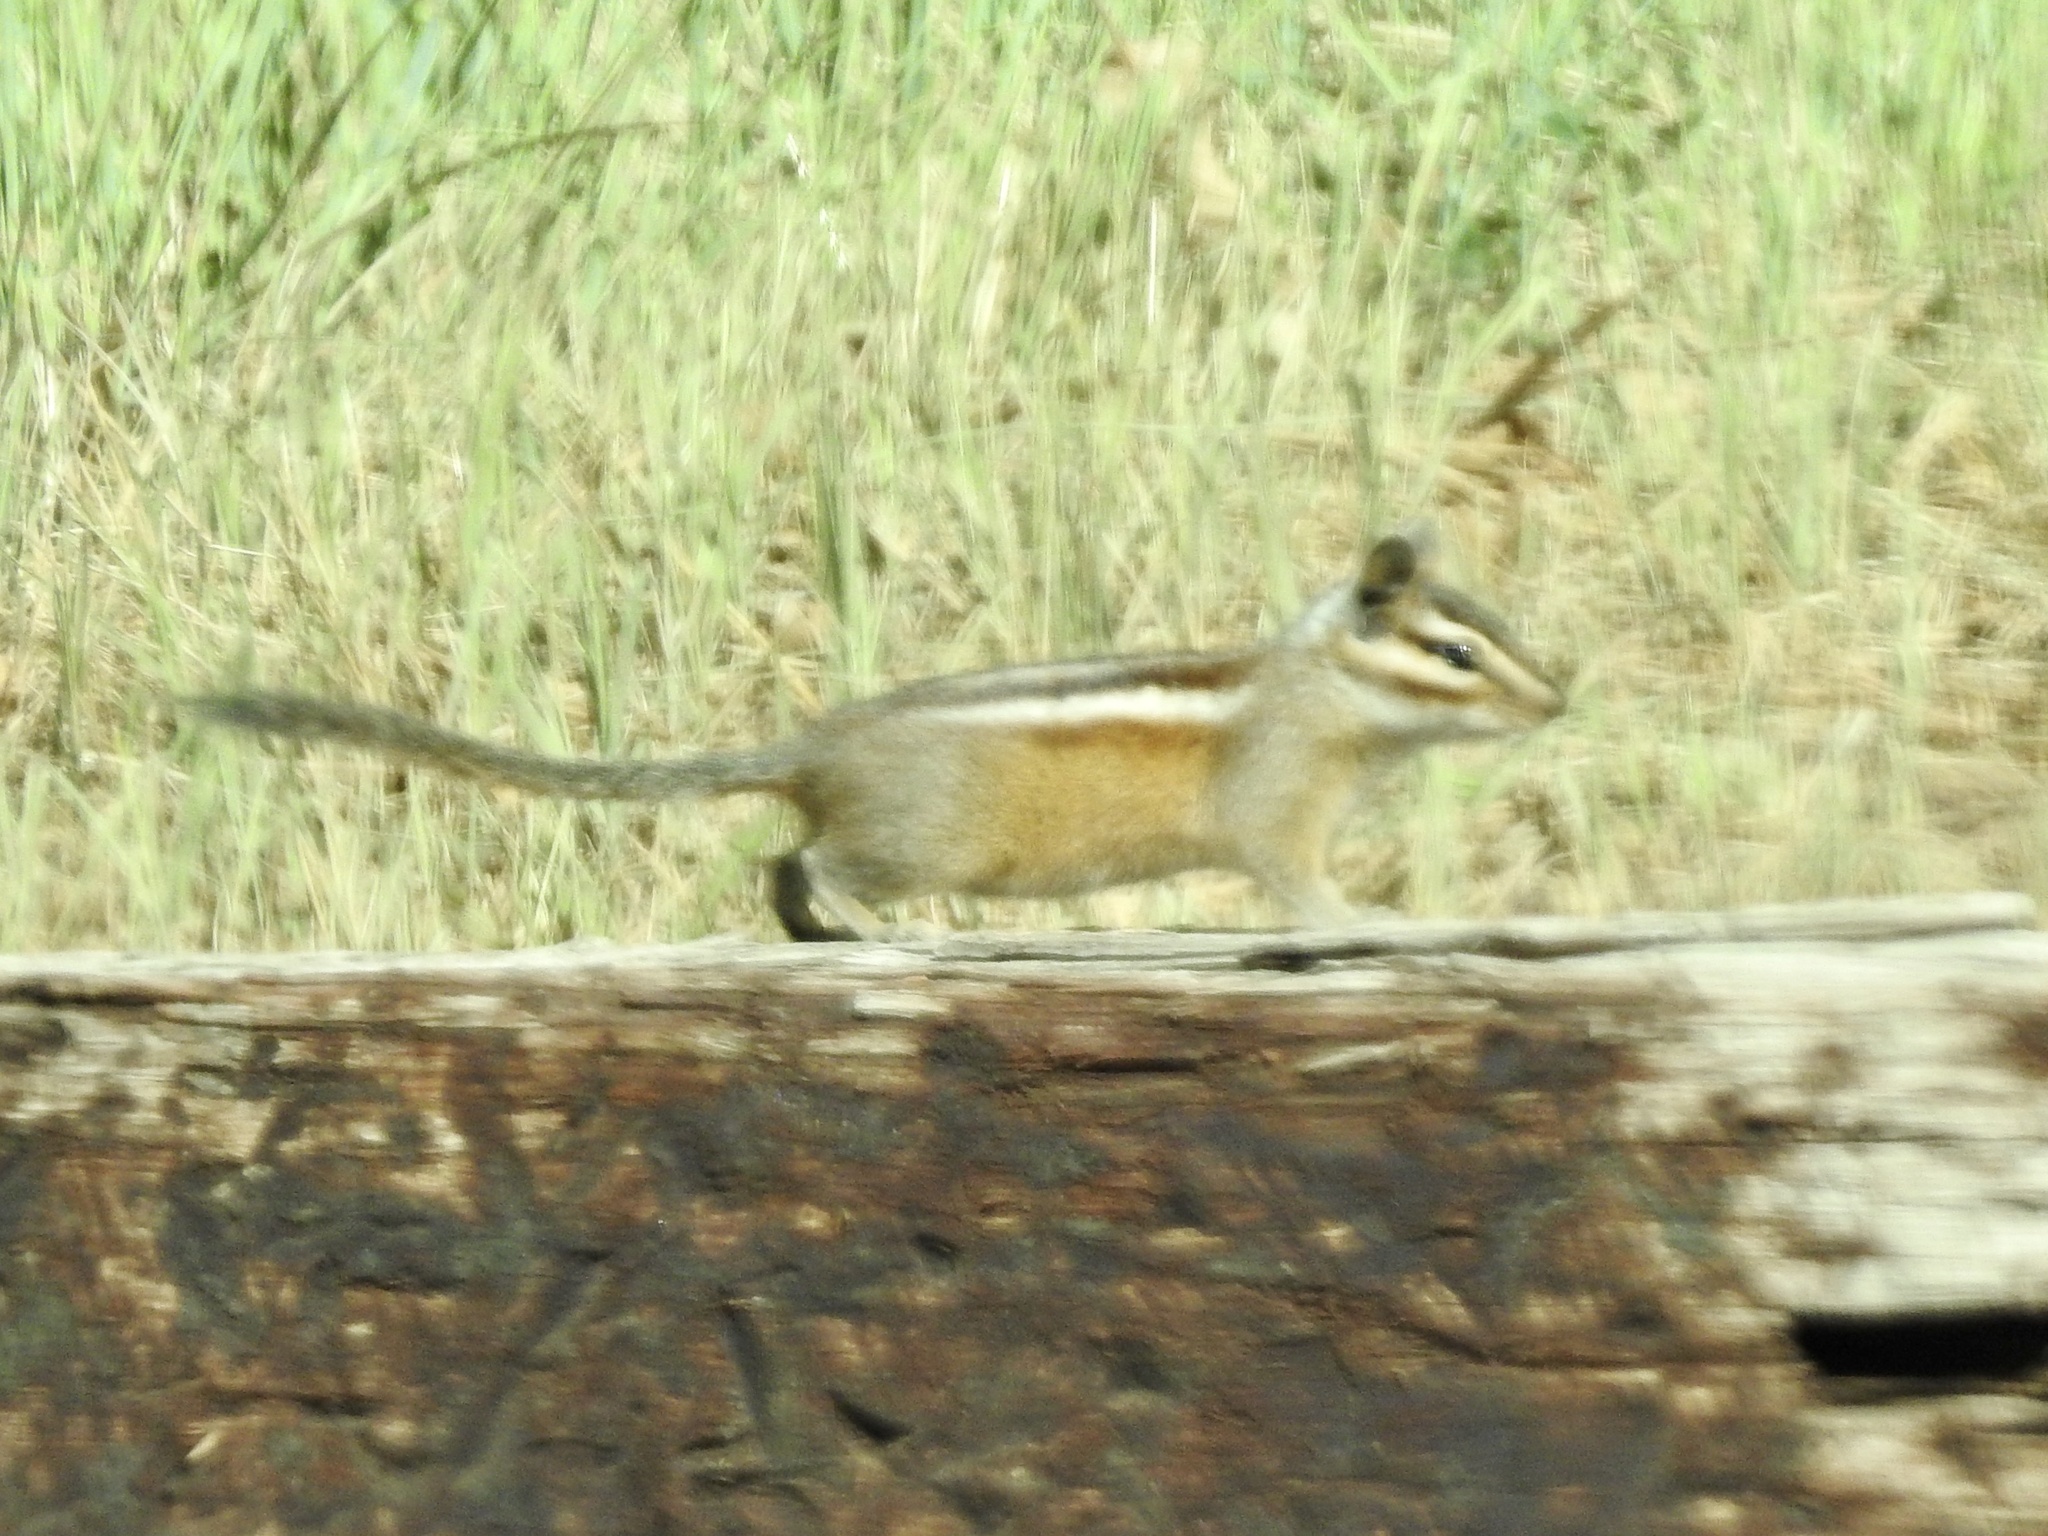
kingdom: Animalia
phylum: Chordata
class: Mammalia
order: Rodentia
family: Sciuridae
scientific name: Sciuridae
